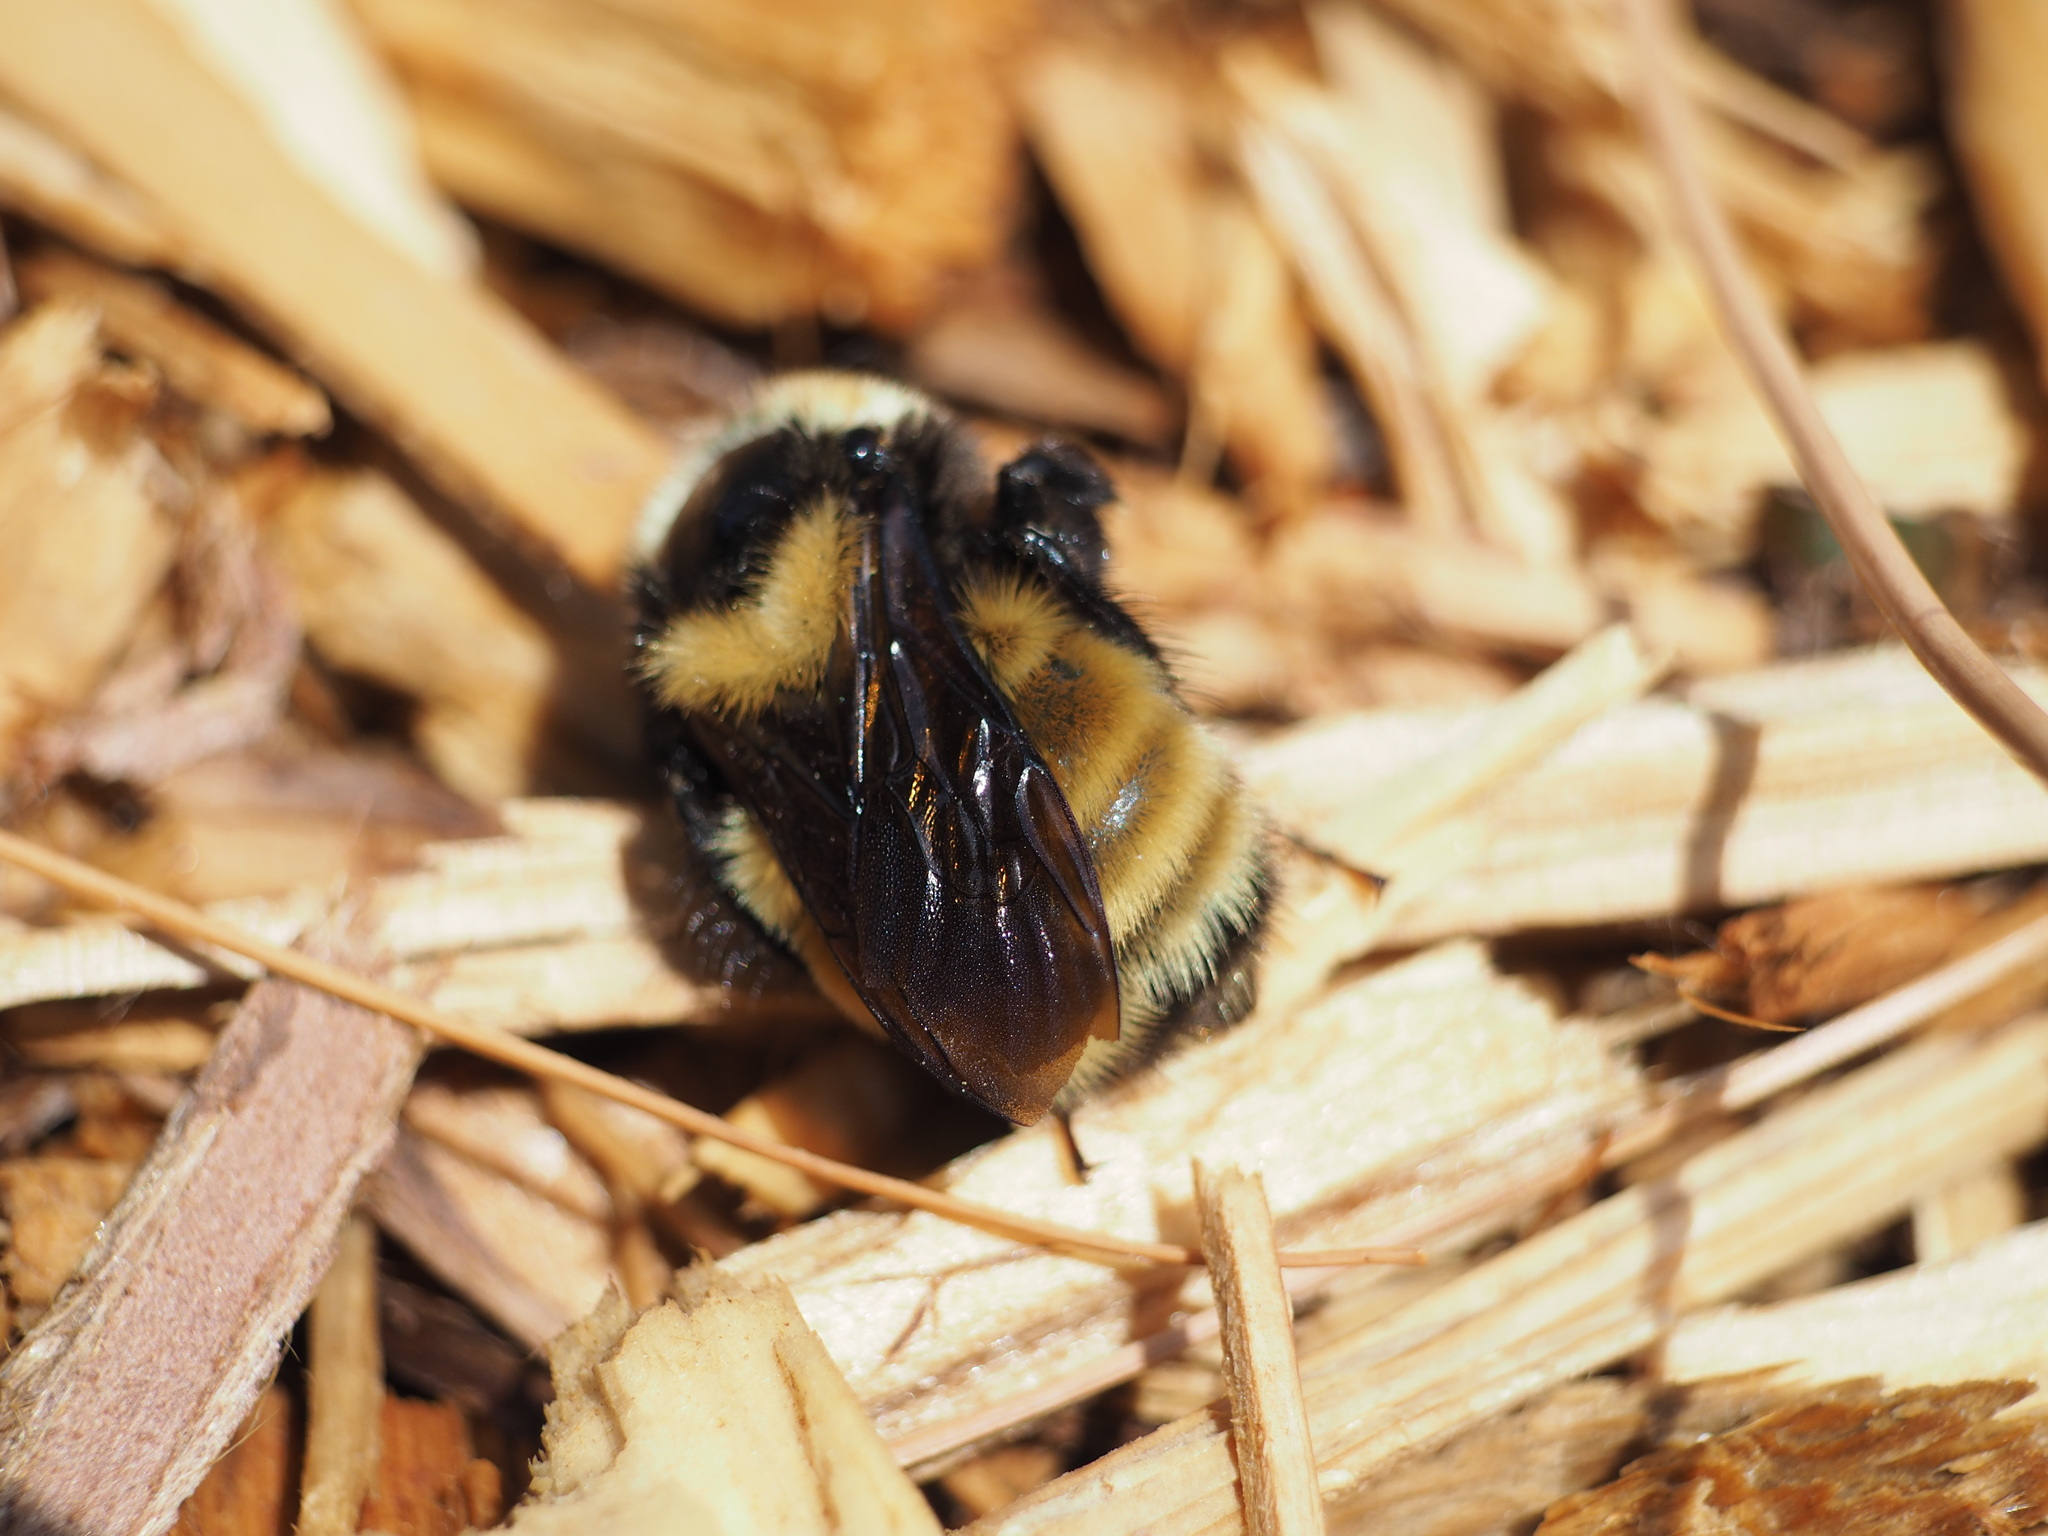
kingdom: Animalia
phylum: Arthropoda
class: Insecta
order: Hymenoptera
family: Apidae
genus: Bombus
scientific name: Bombus borealis
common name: Northern amber bumble bee
